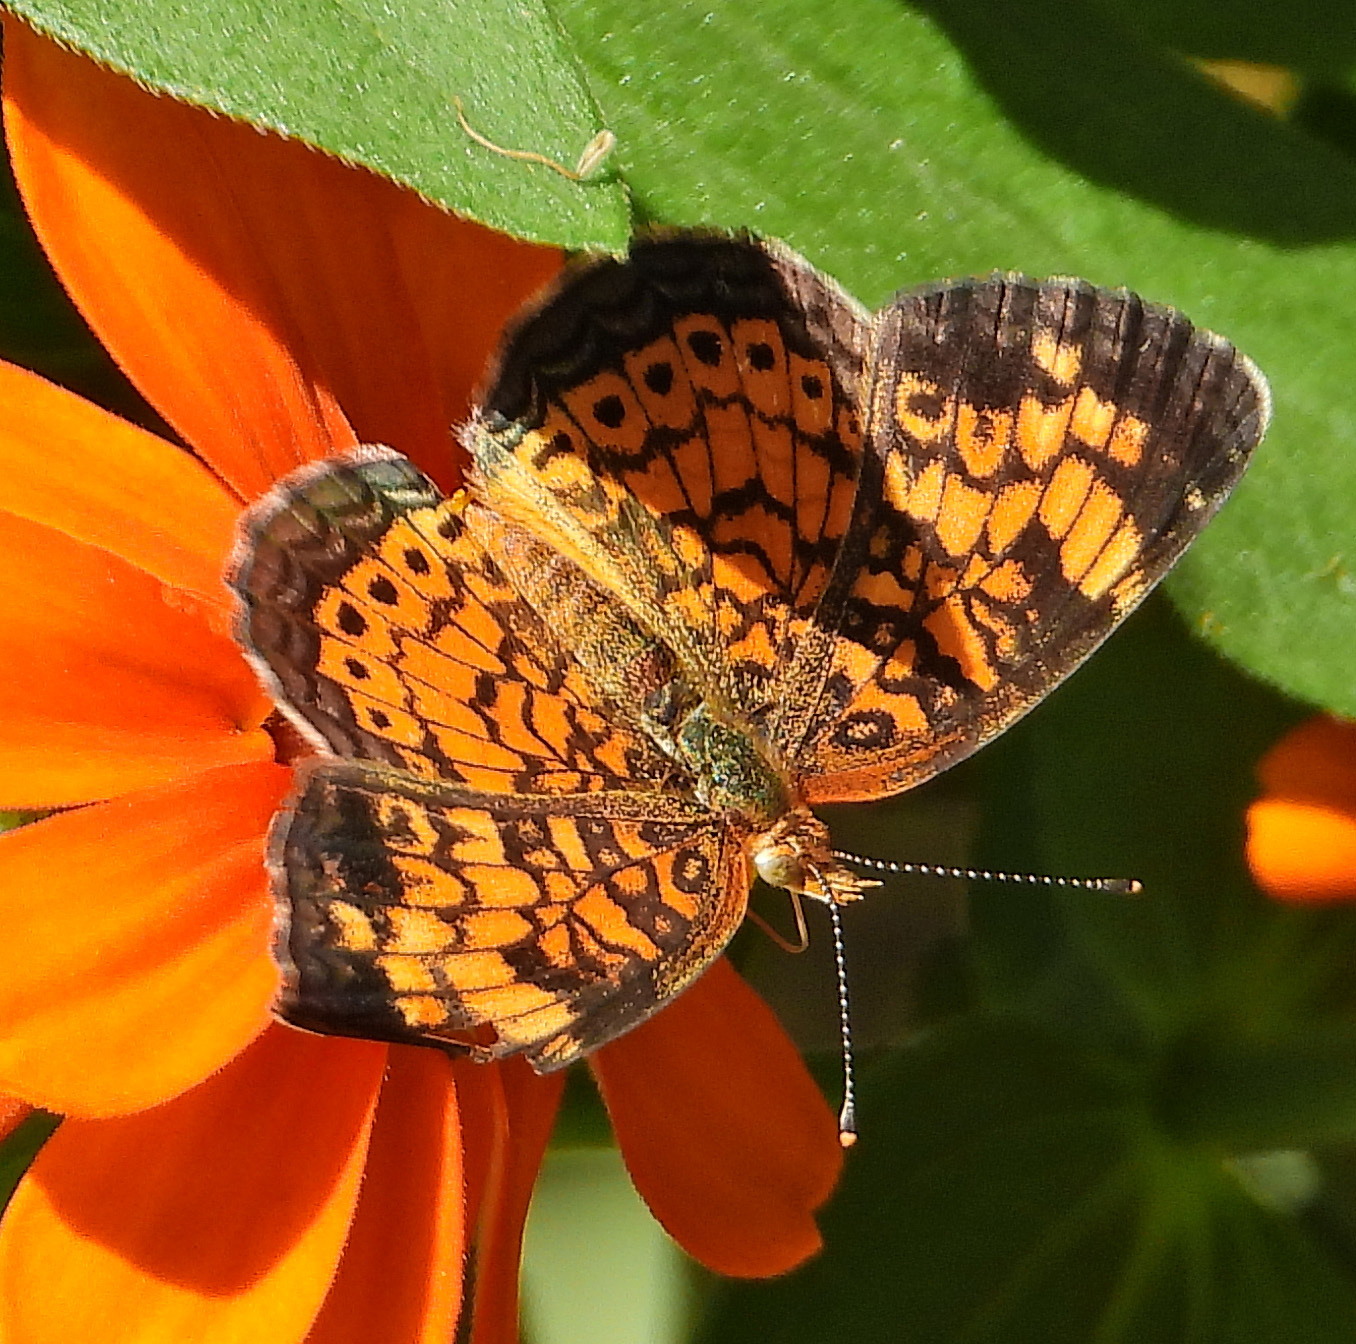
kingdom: Animalia
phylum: Arthropoda
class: Insecta
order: Lepidoptera
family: Nymphalidae
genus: Phyciodes
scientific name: Phyciodes tharos
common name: Pearl crescent
